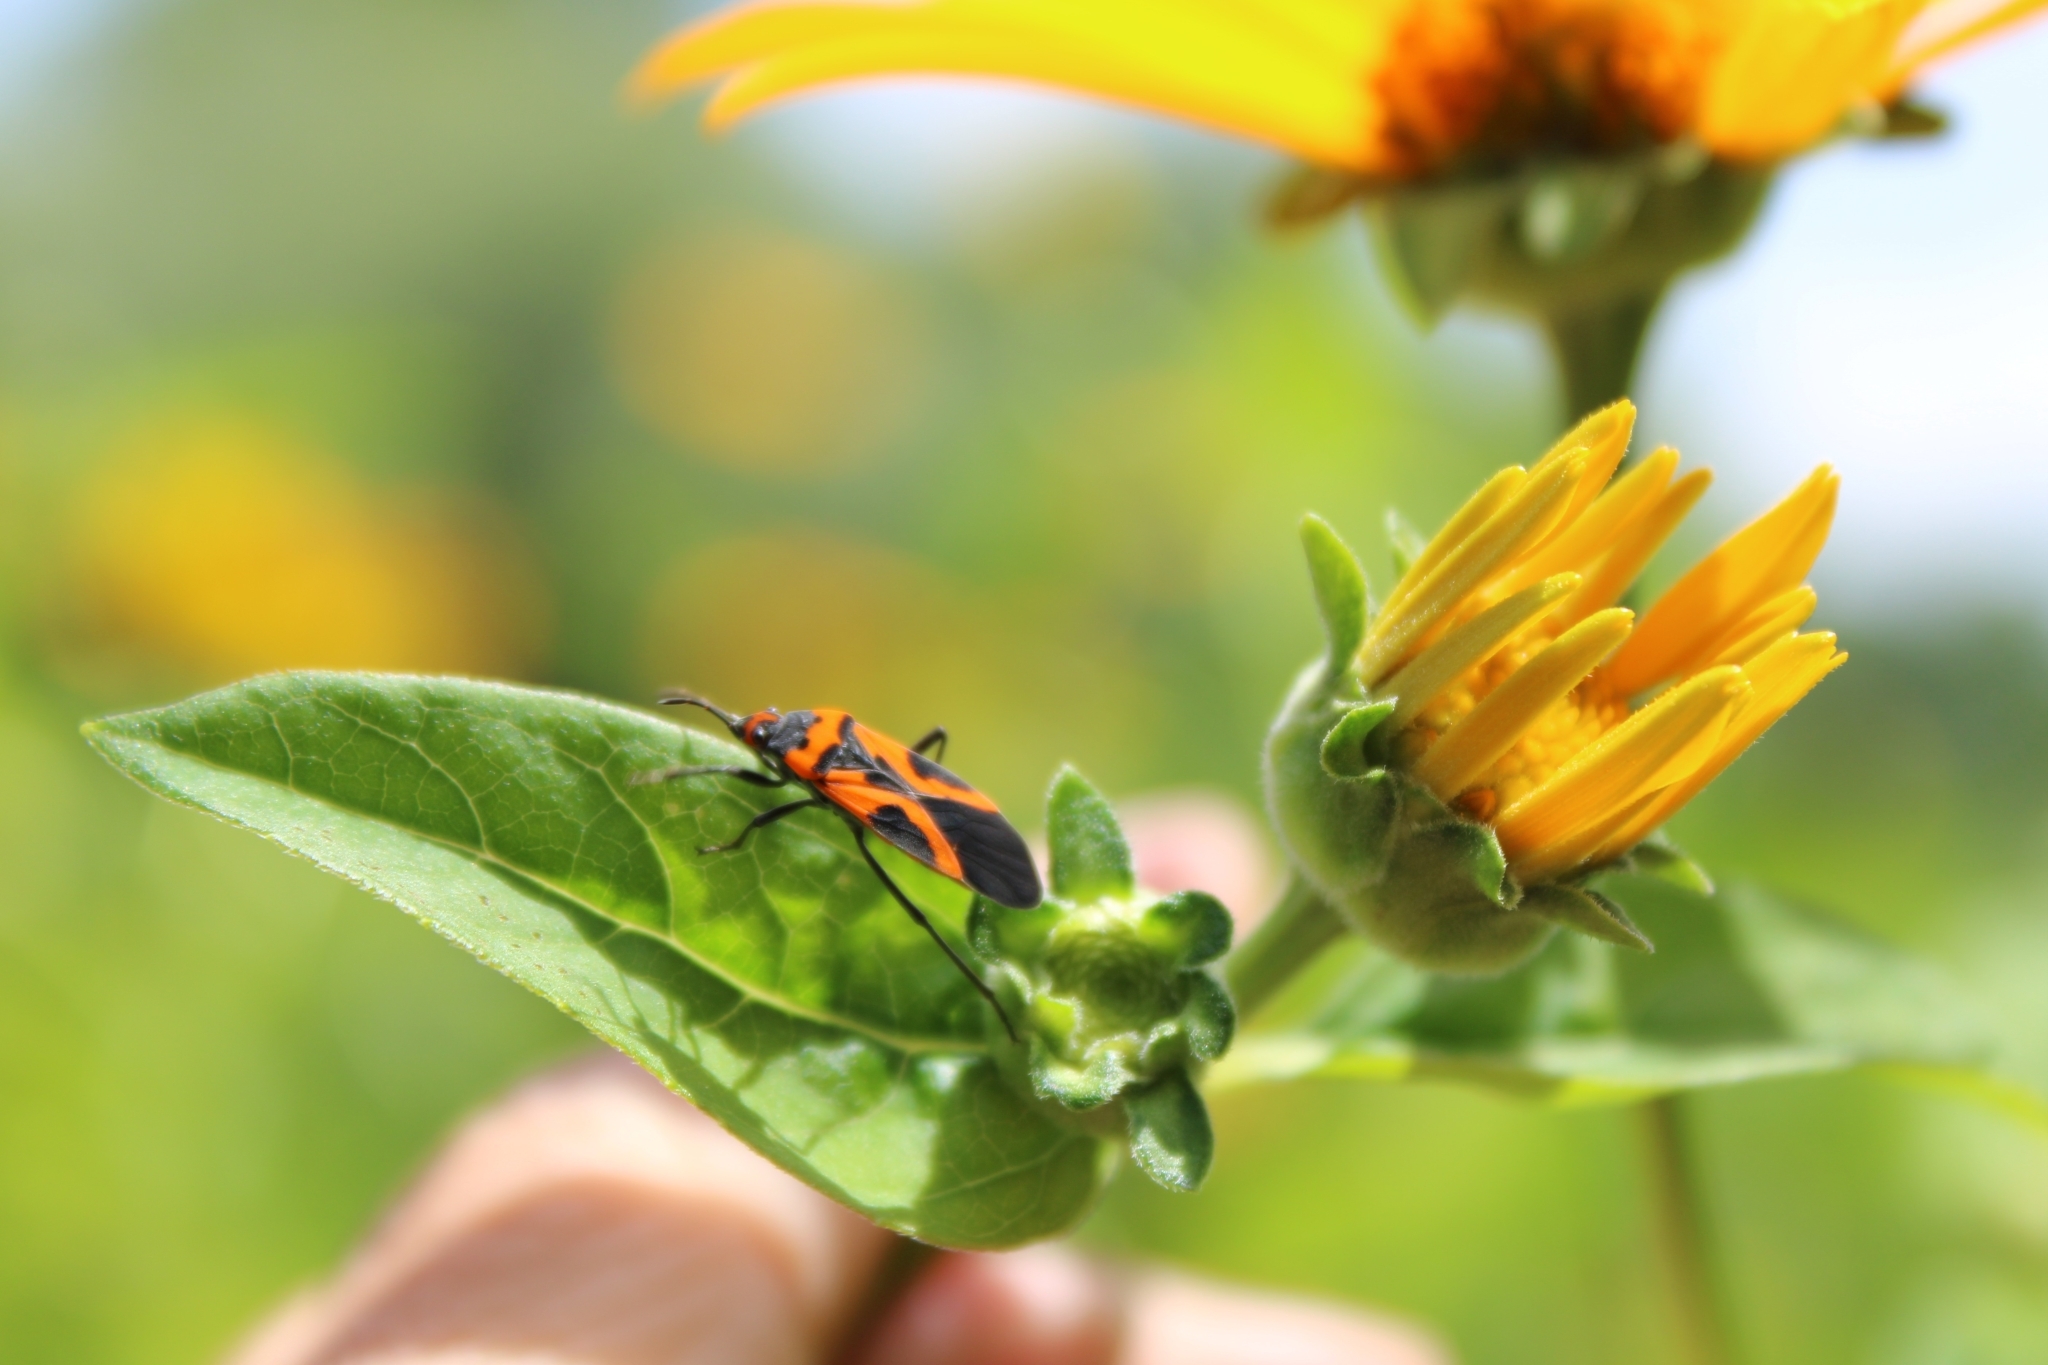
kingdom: Animalia
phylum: Arthropoda
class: Insecta
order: Hemiptera
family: Lygaeidae
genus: Lygaeus
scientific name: Lygaeus turcicus
